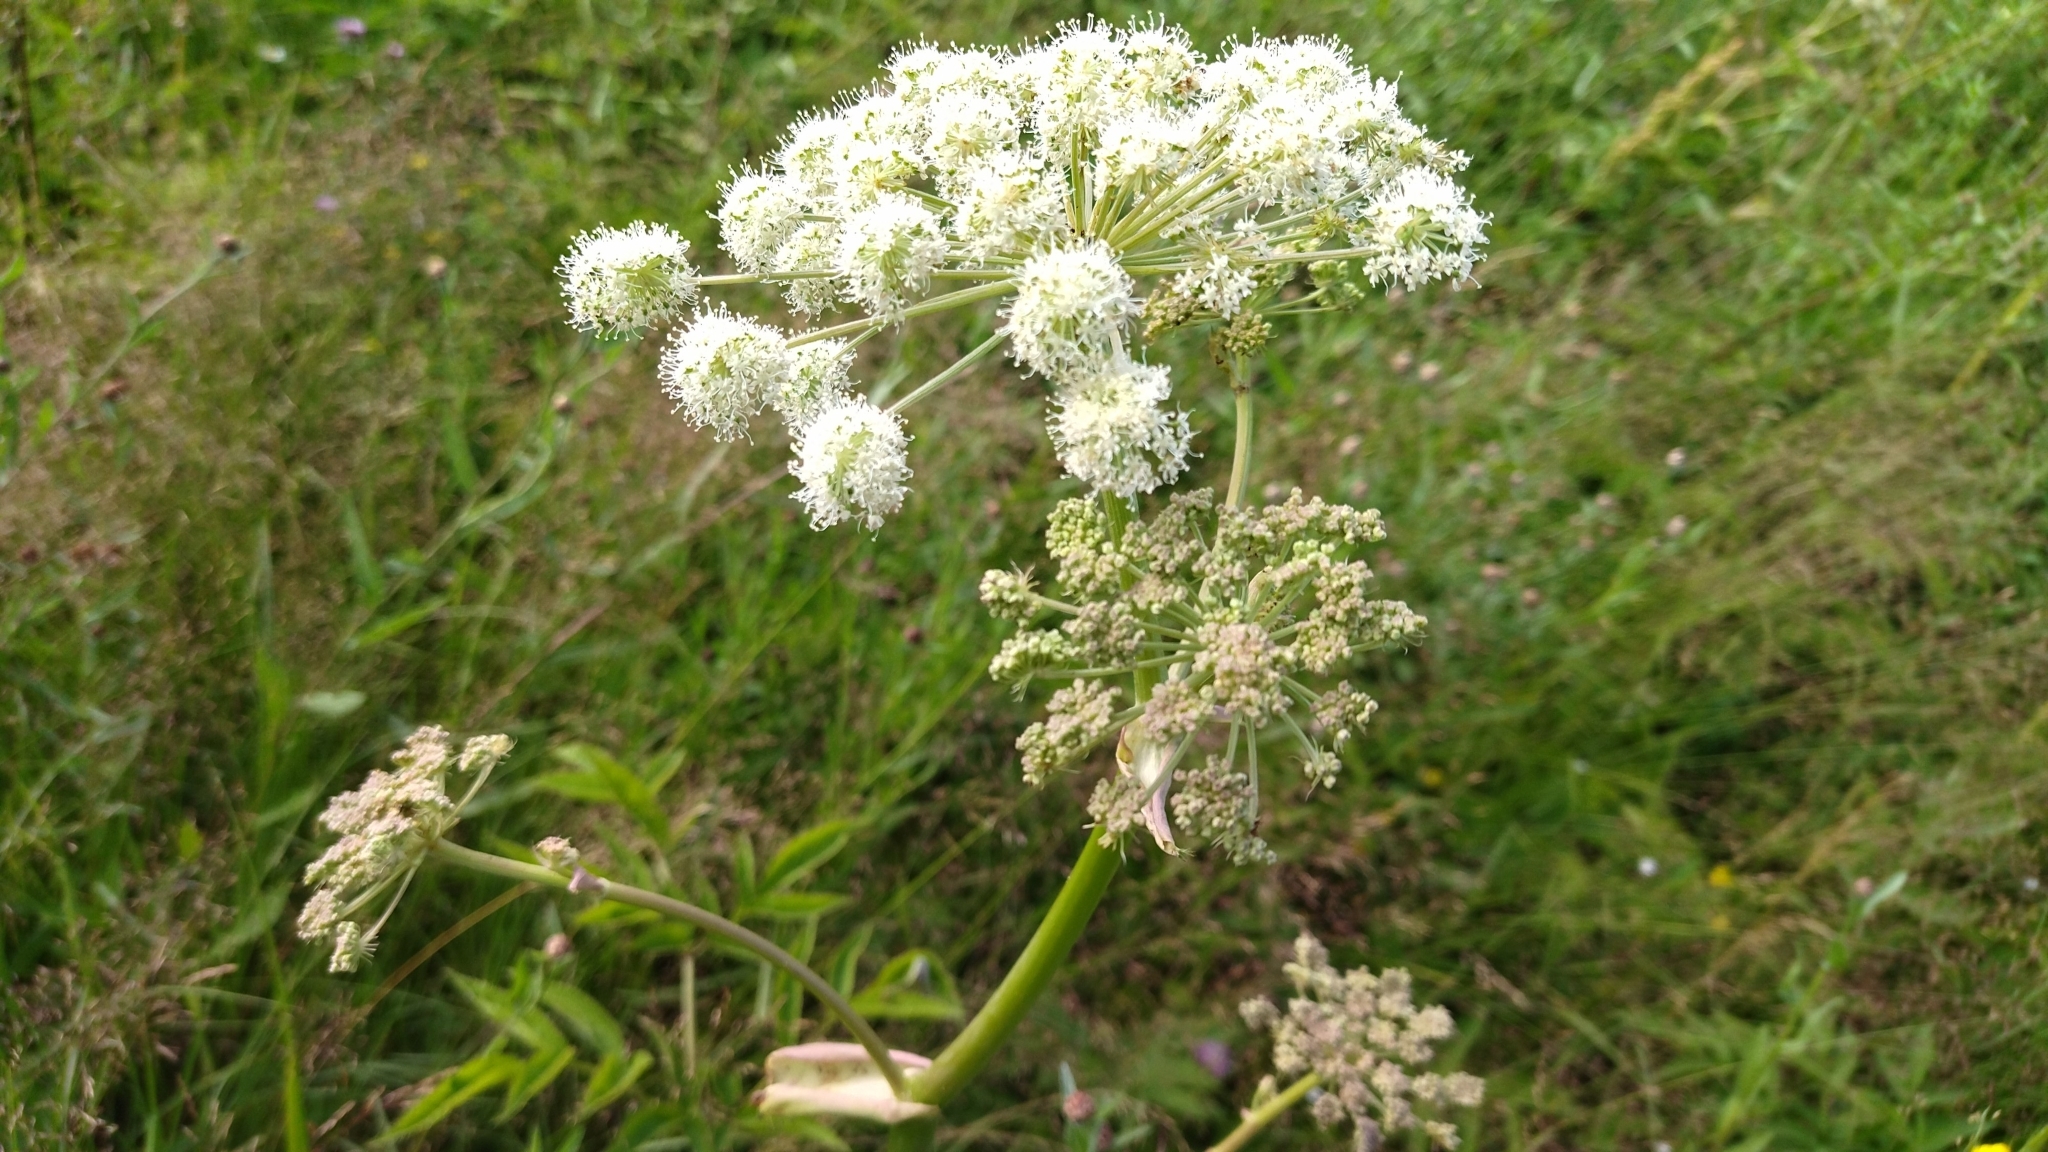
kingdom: Plantae
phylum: Tracheophyta
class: Magnoliopsida
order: Apiales
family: Apiaceae
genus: Angelica
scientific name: Angelica sylvestris
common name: Wild angelica
